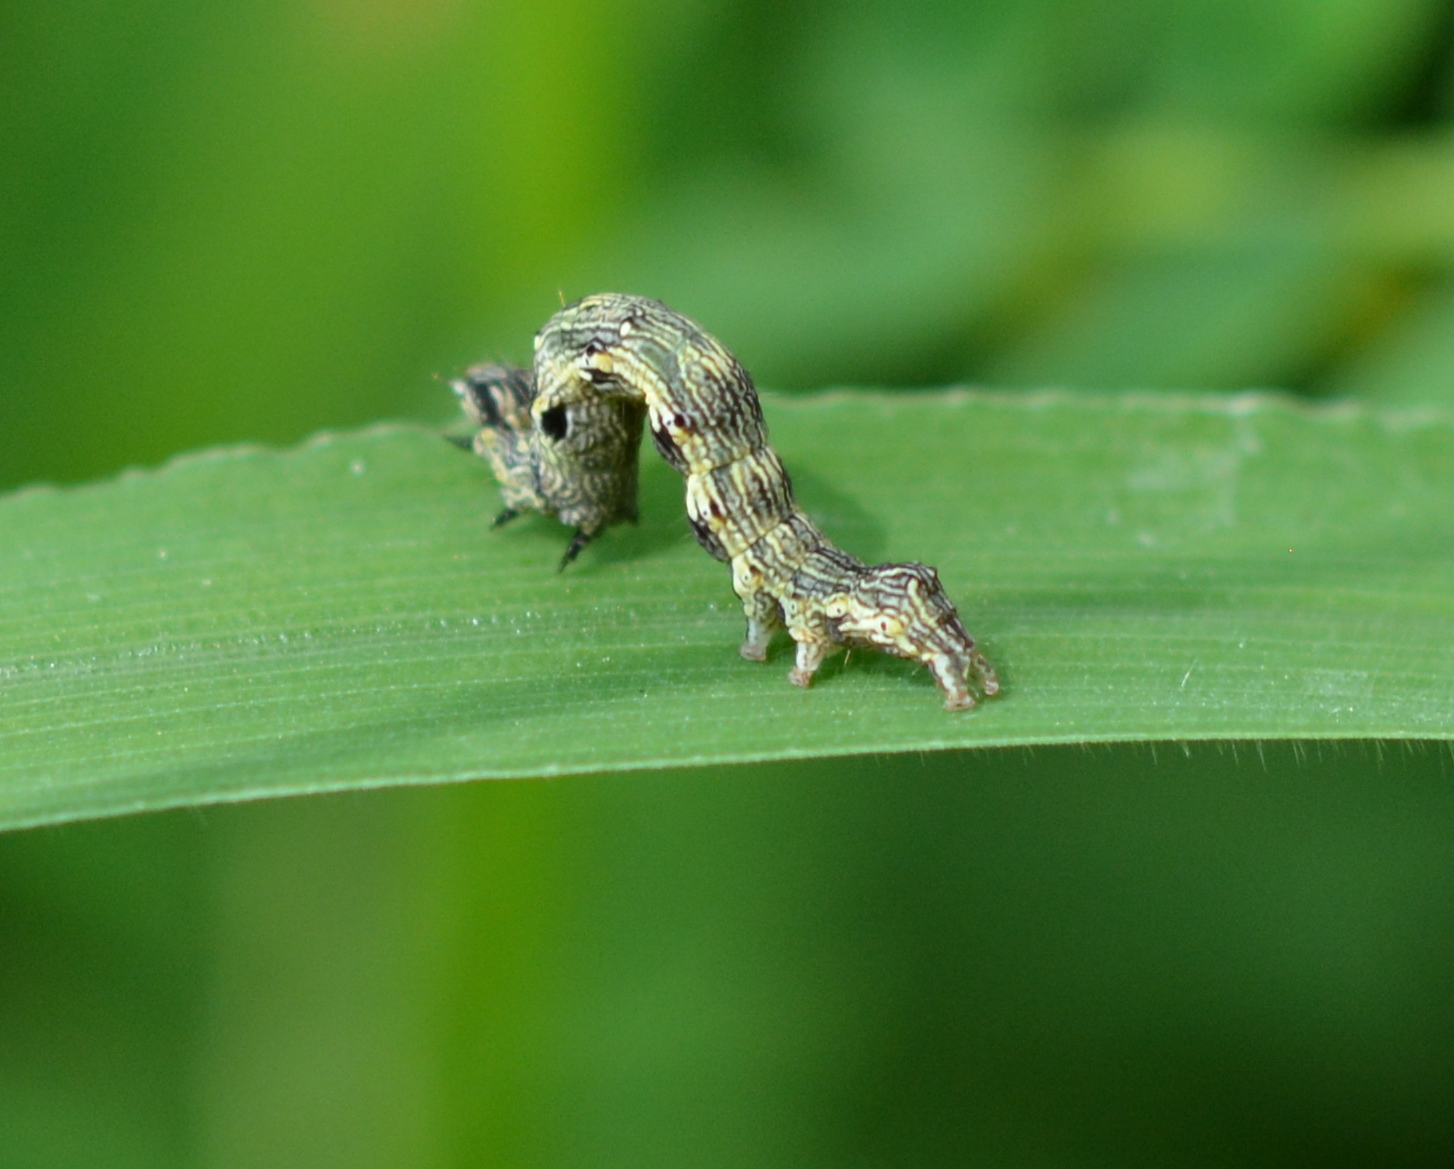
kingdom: Animalia
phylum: Arthropoda
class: Insecta
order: Lepidoptera
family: Noctuidae
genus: Acontia
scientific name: Acontia leo
